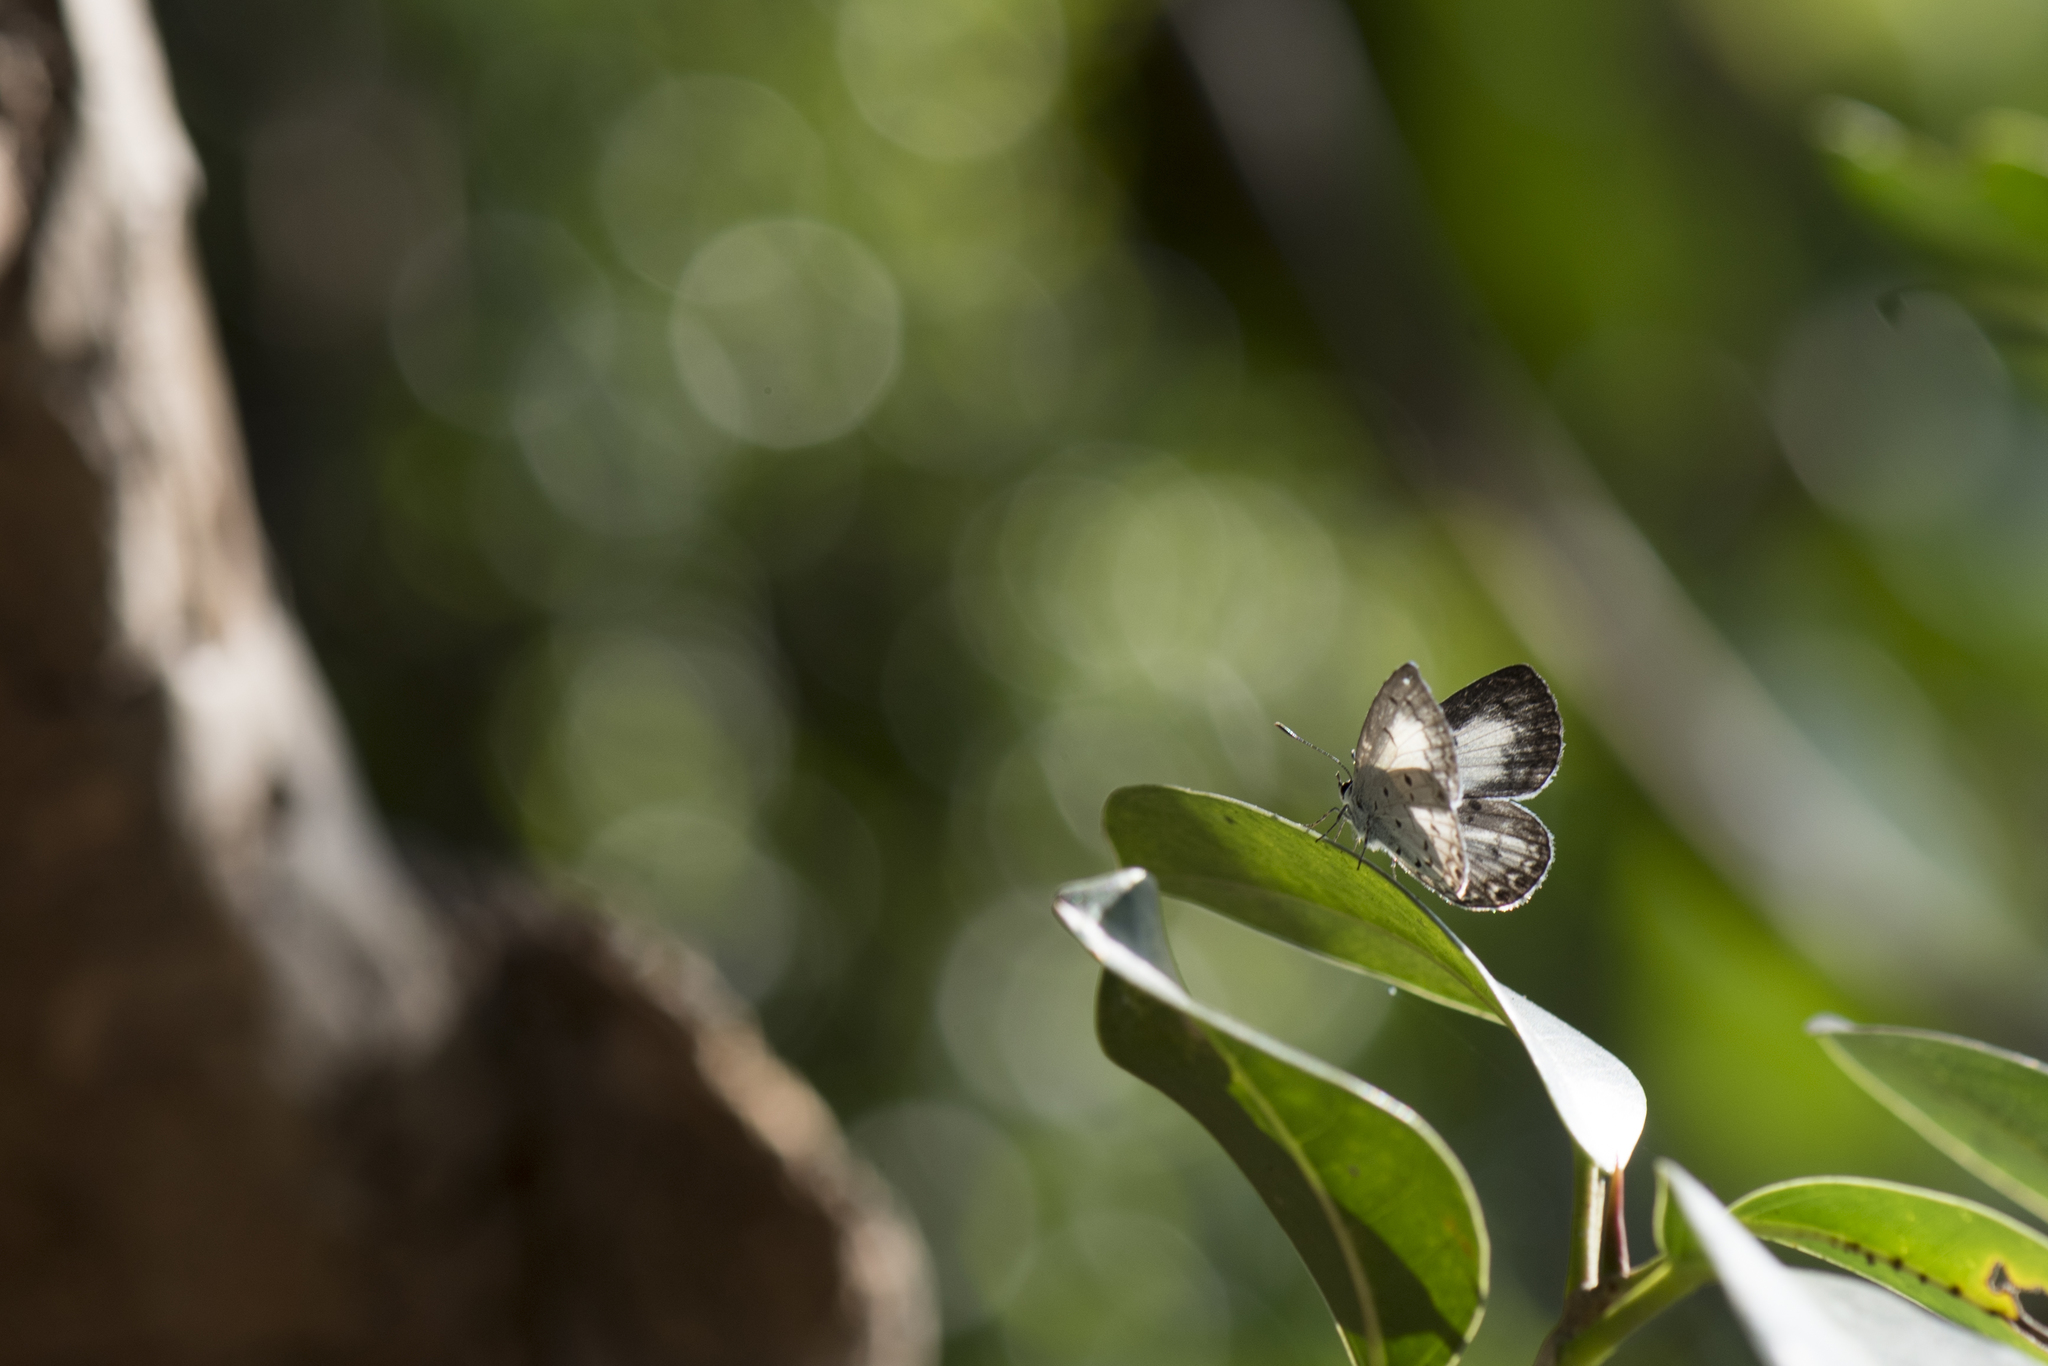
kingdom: Animalia
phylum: Arthropoda
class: Insecta
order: Lepidoptera
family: Lycaenidae
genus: Acytolepis
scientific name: Acytolepis puspa
